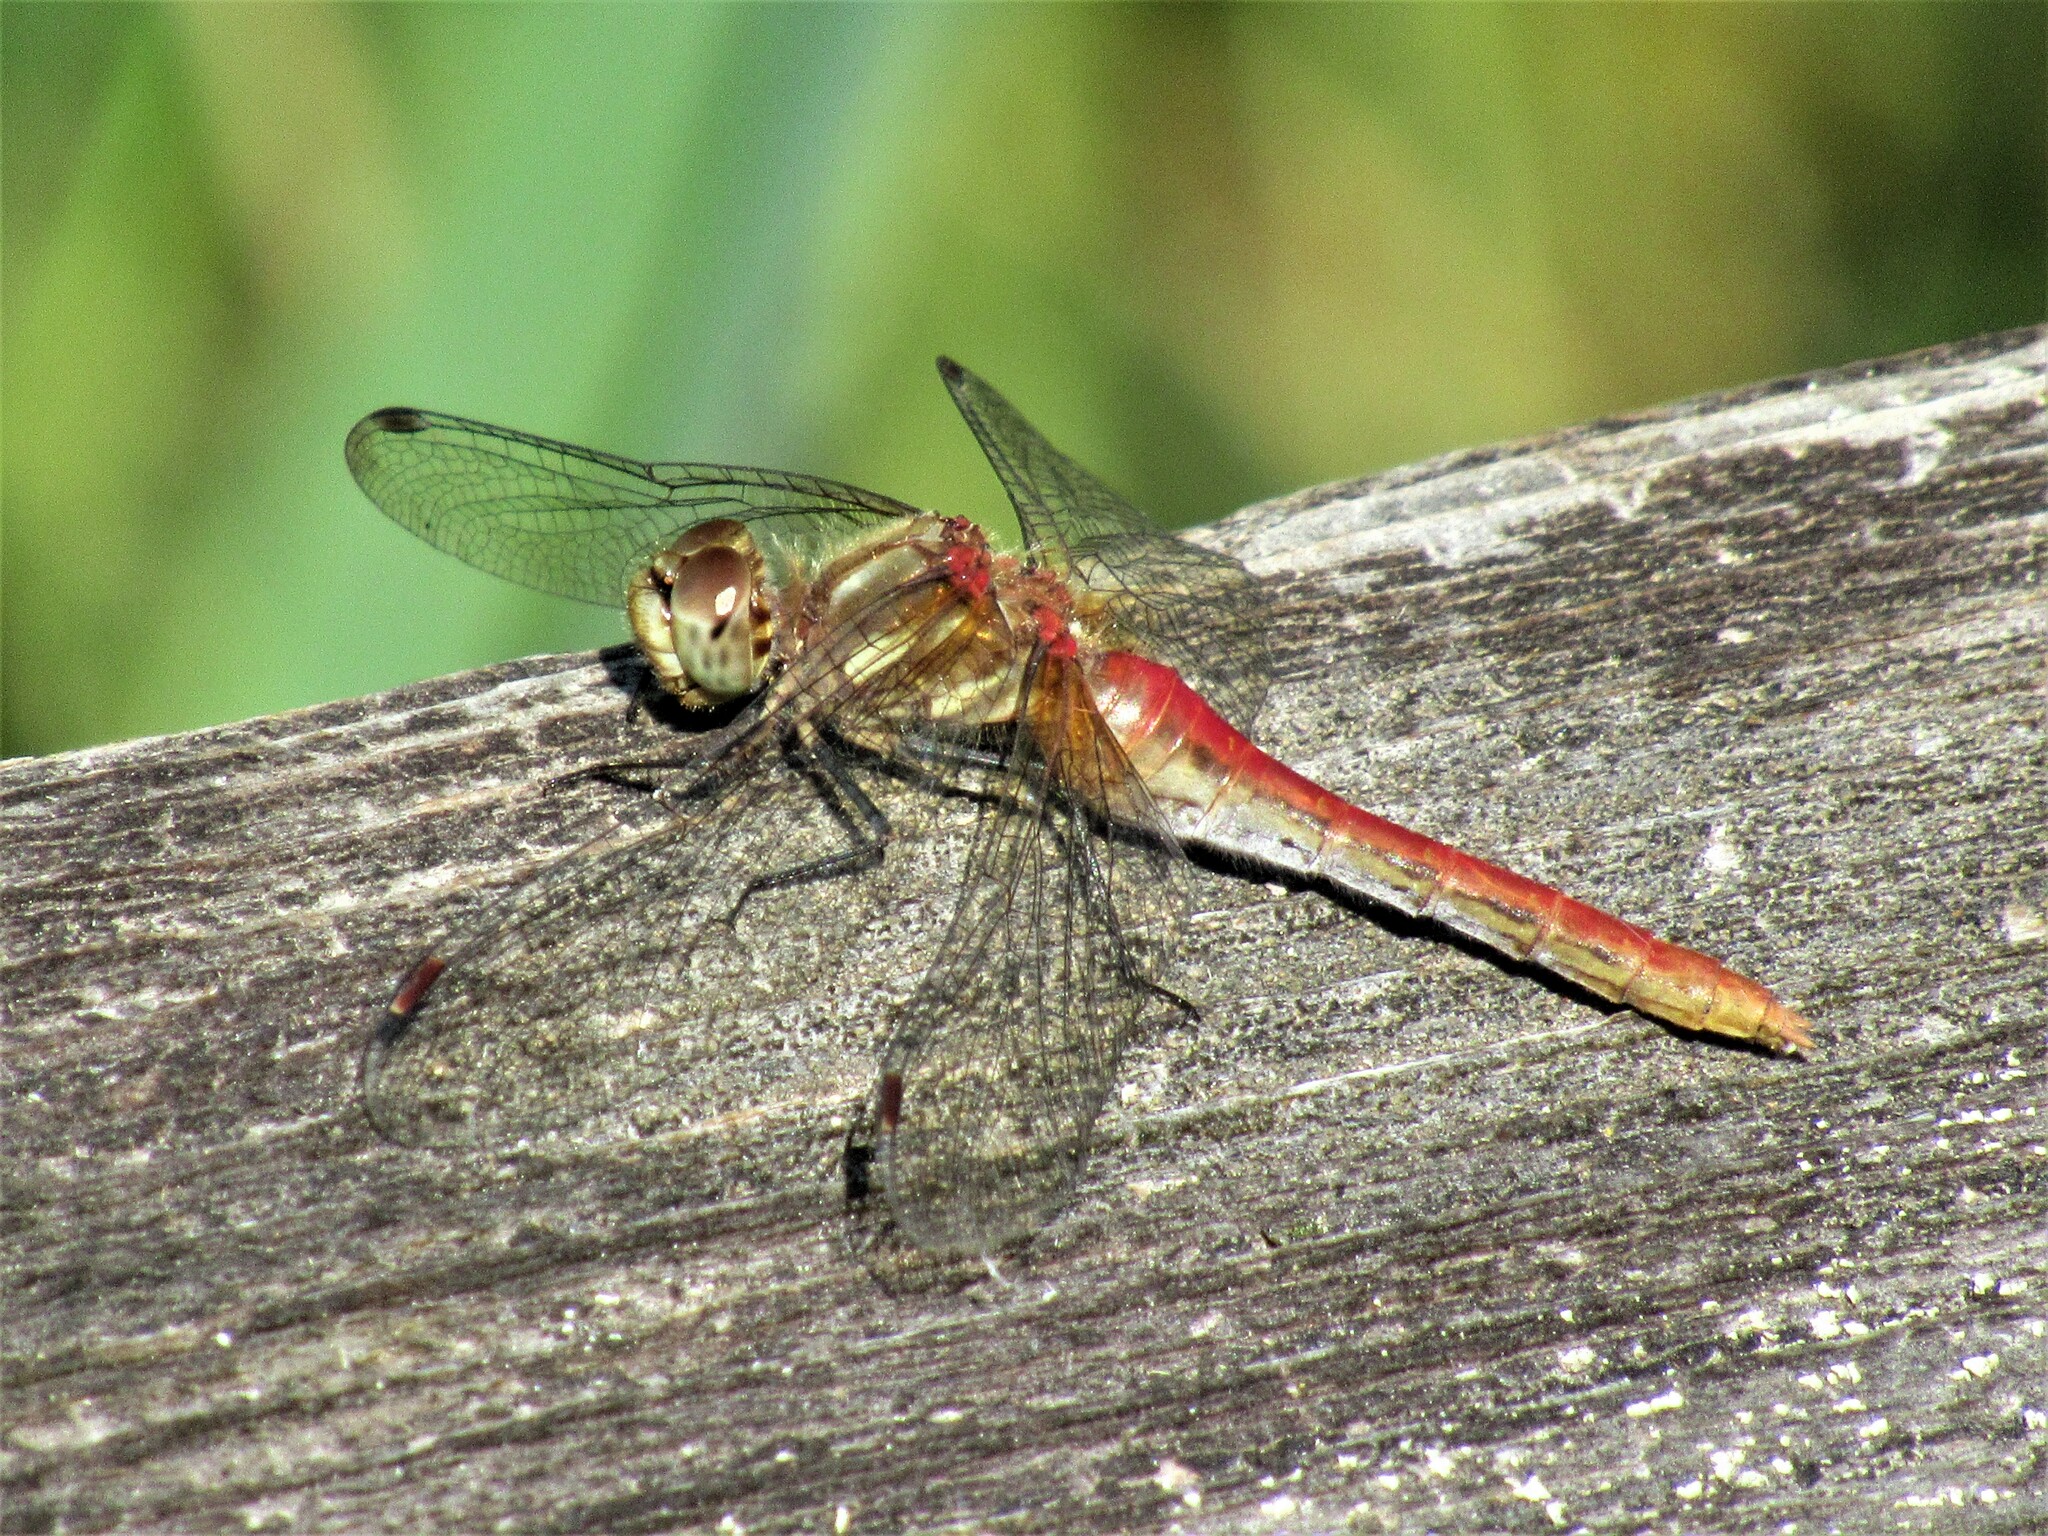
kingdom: Animalia
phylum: Arthropoda
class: Insecta
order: Odonata
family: Libellulidae
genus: Sympetrum
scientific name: Sympetrum pallipes
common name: Striped meadowhawk
